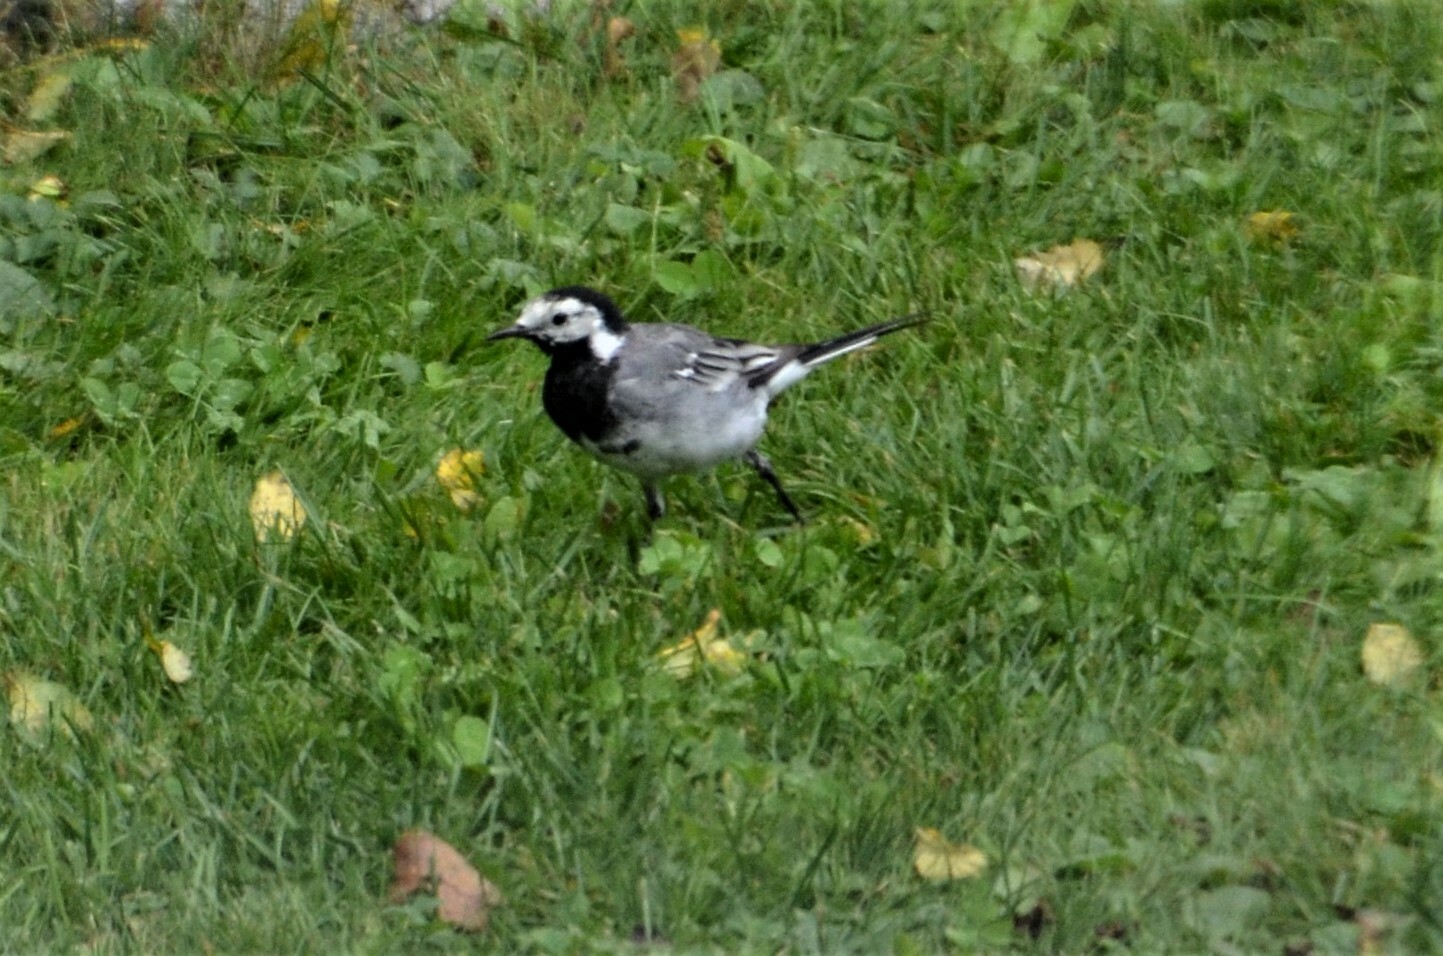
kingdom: Animalia
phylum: Chordata
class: Aves
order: Passeriformes
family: Motacillidae
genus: Motacilla
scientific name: Motacilla alba
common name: White wagtail
